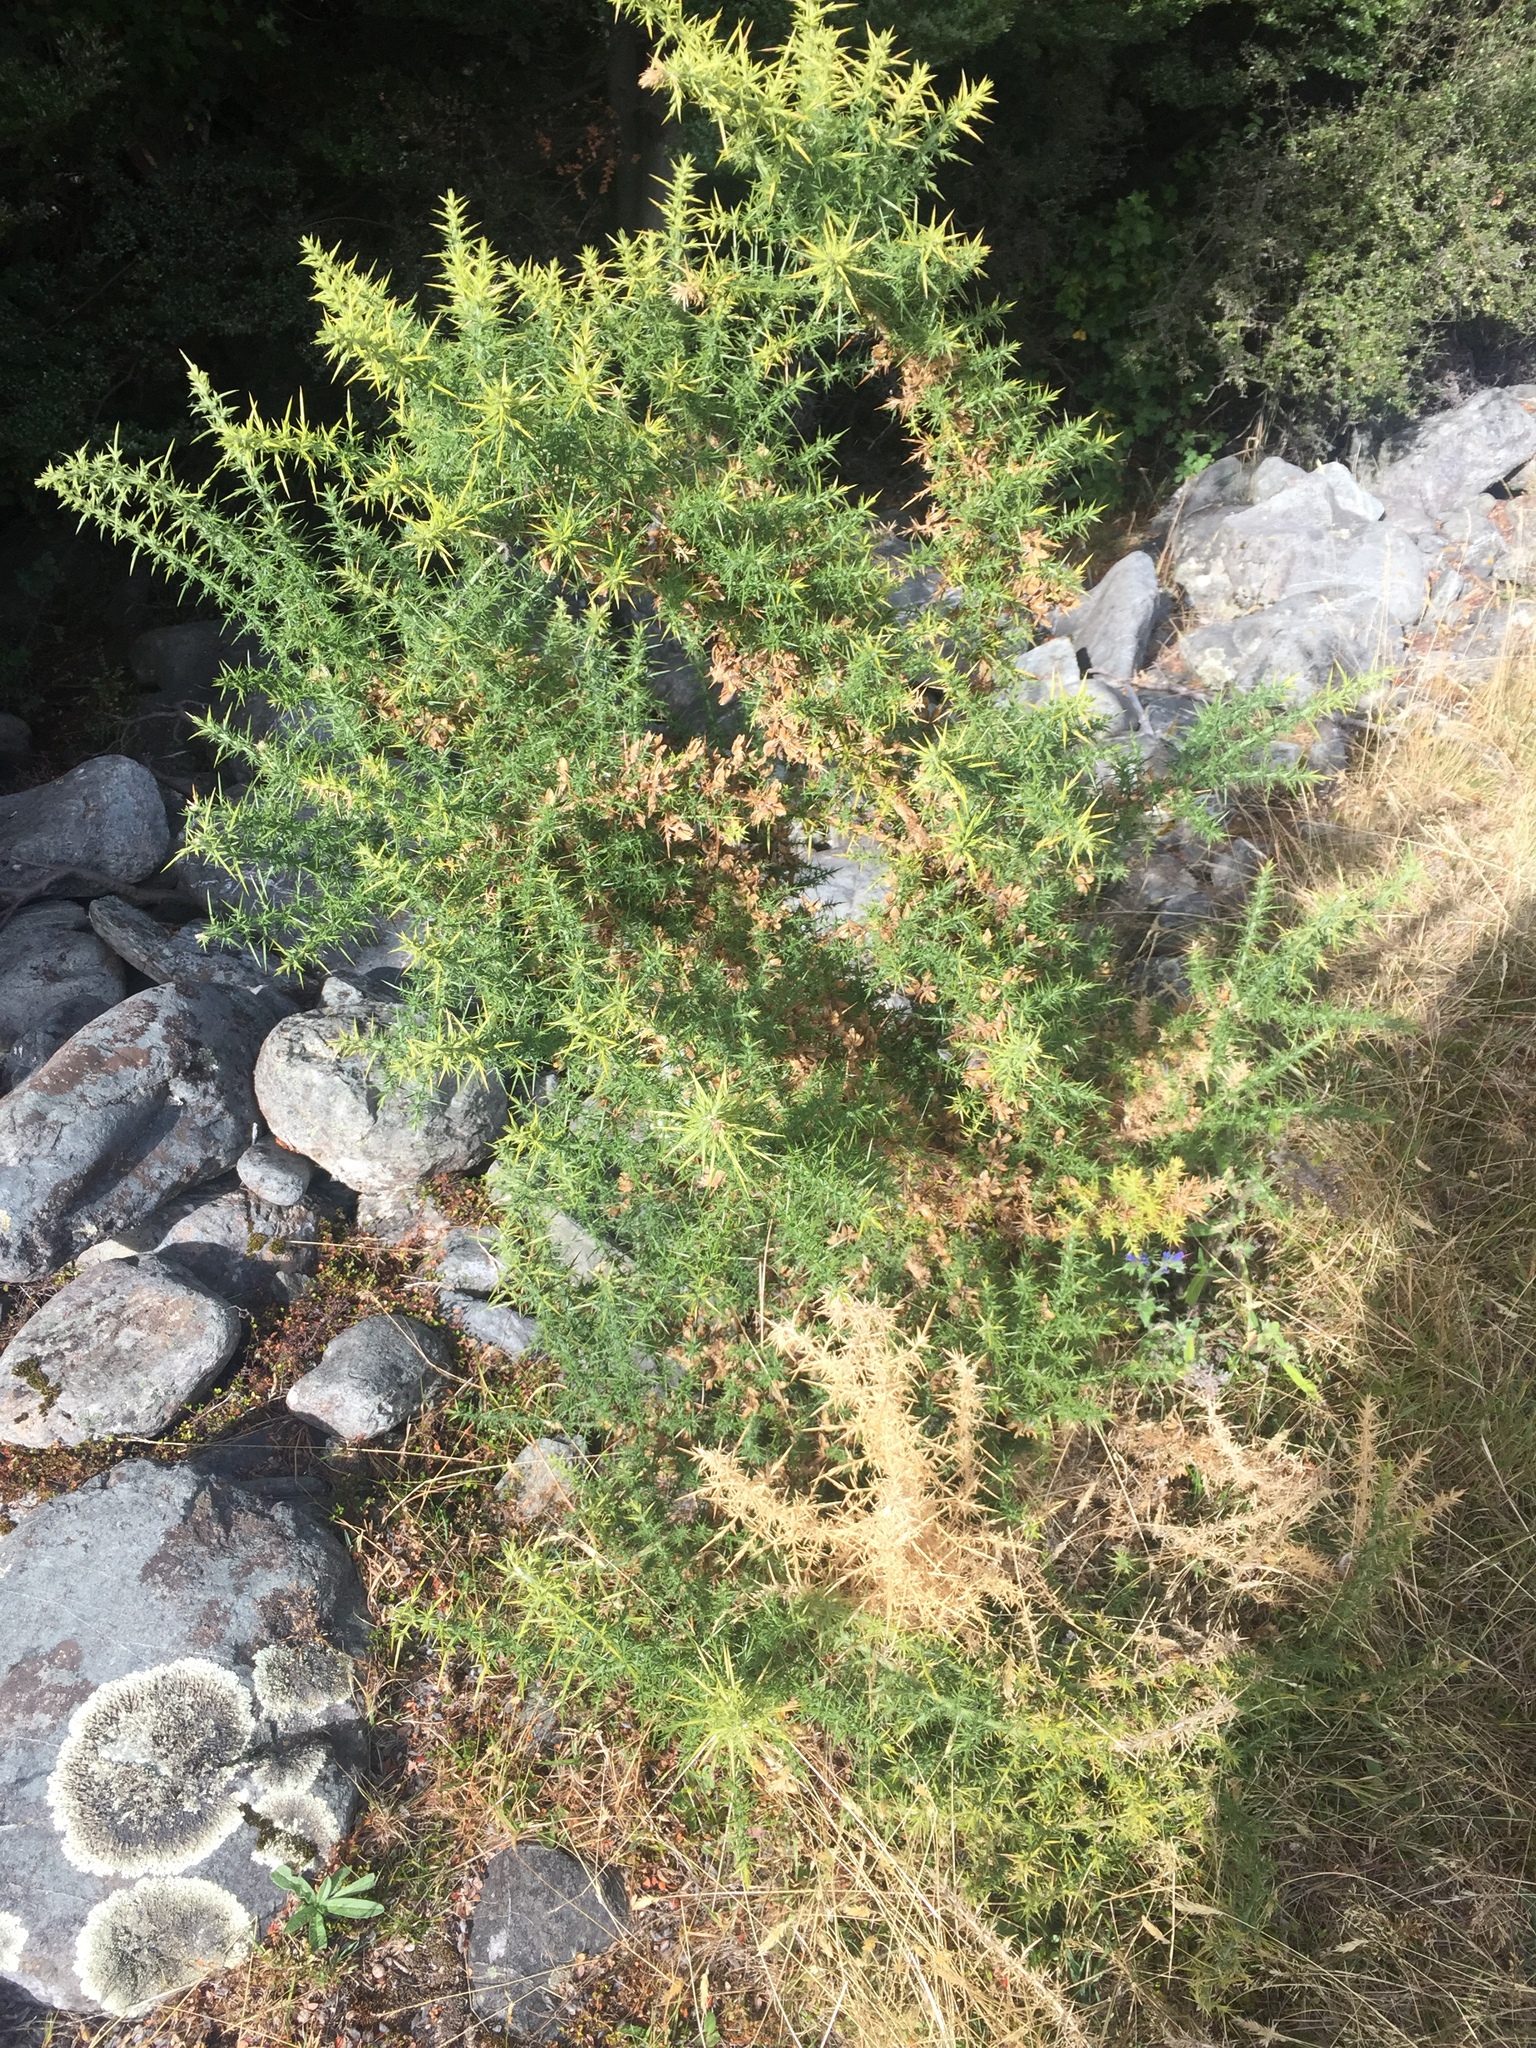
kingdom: Plantae
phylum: Tracheophyta
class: Magnoliopsida
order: Fabales
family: Fabaceae
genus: Ulex
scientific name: Ulex europaeus
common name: Common gorse
